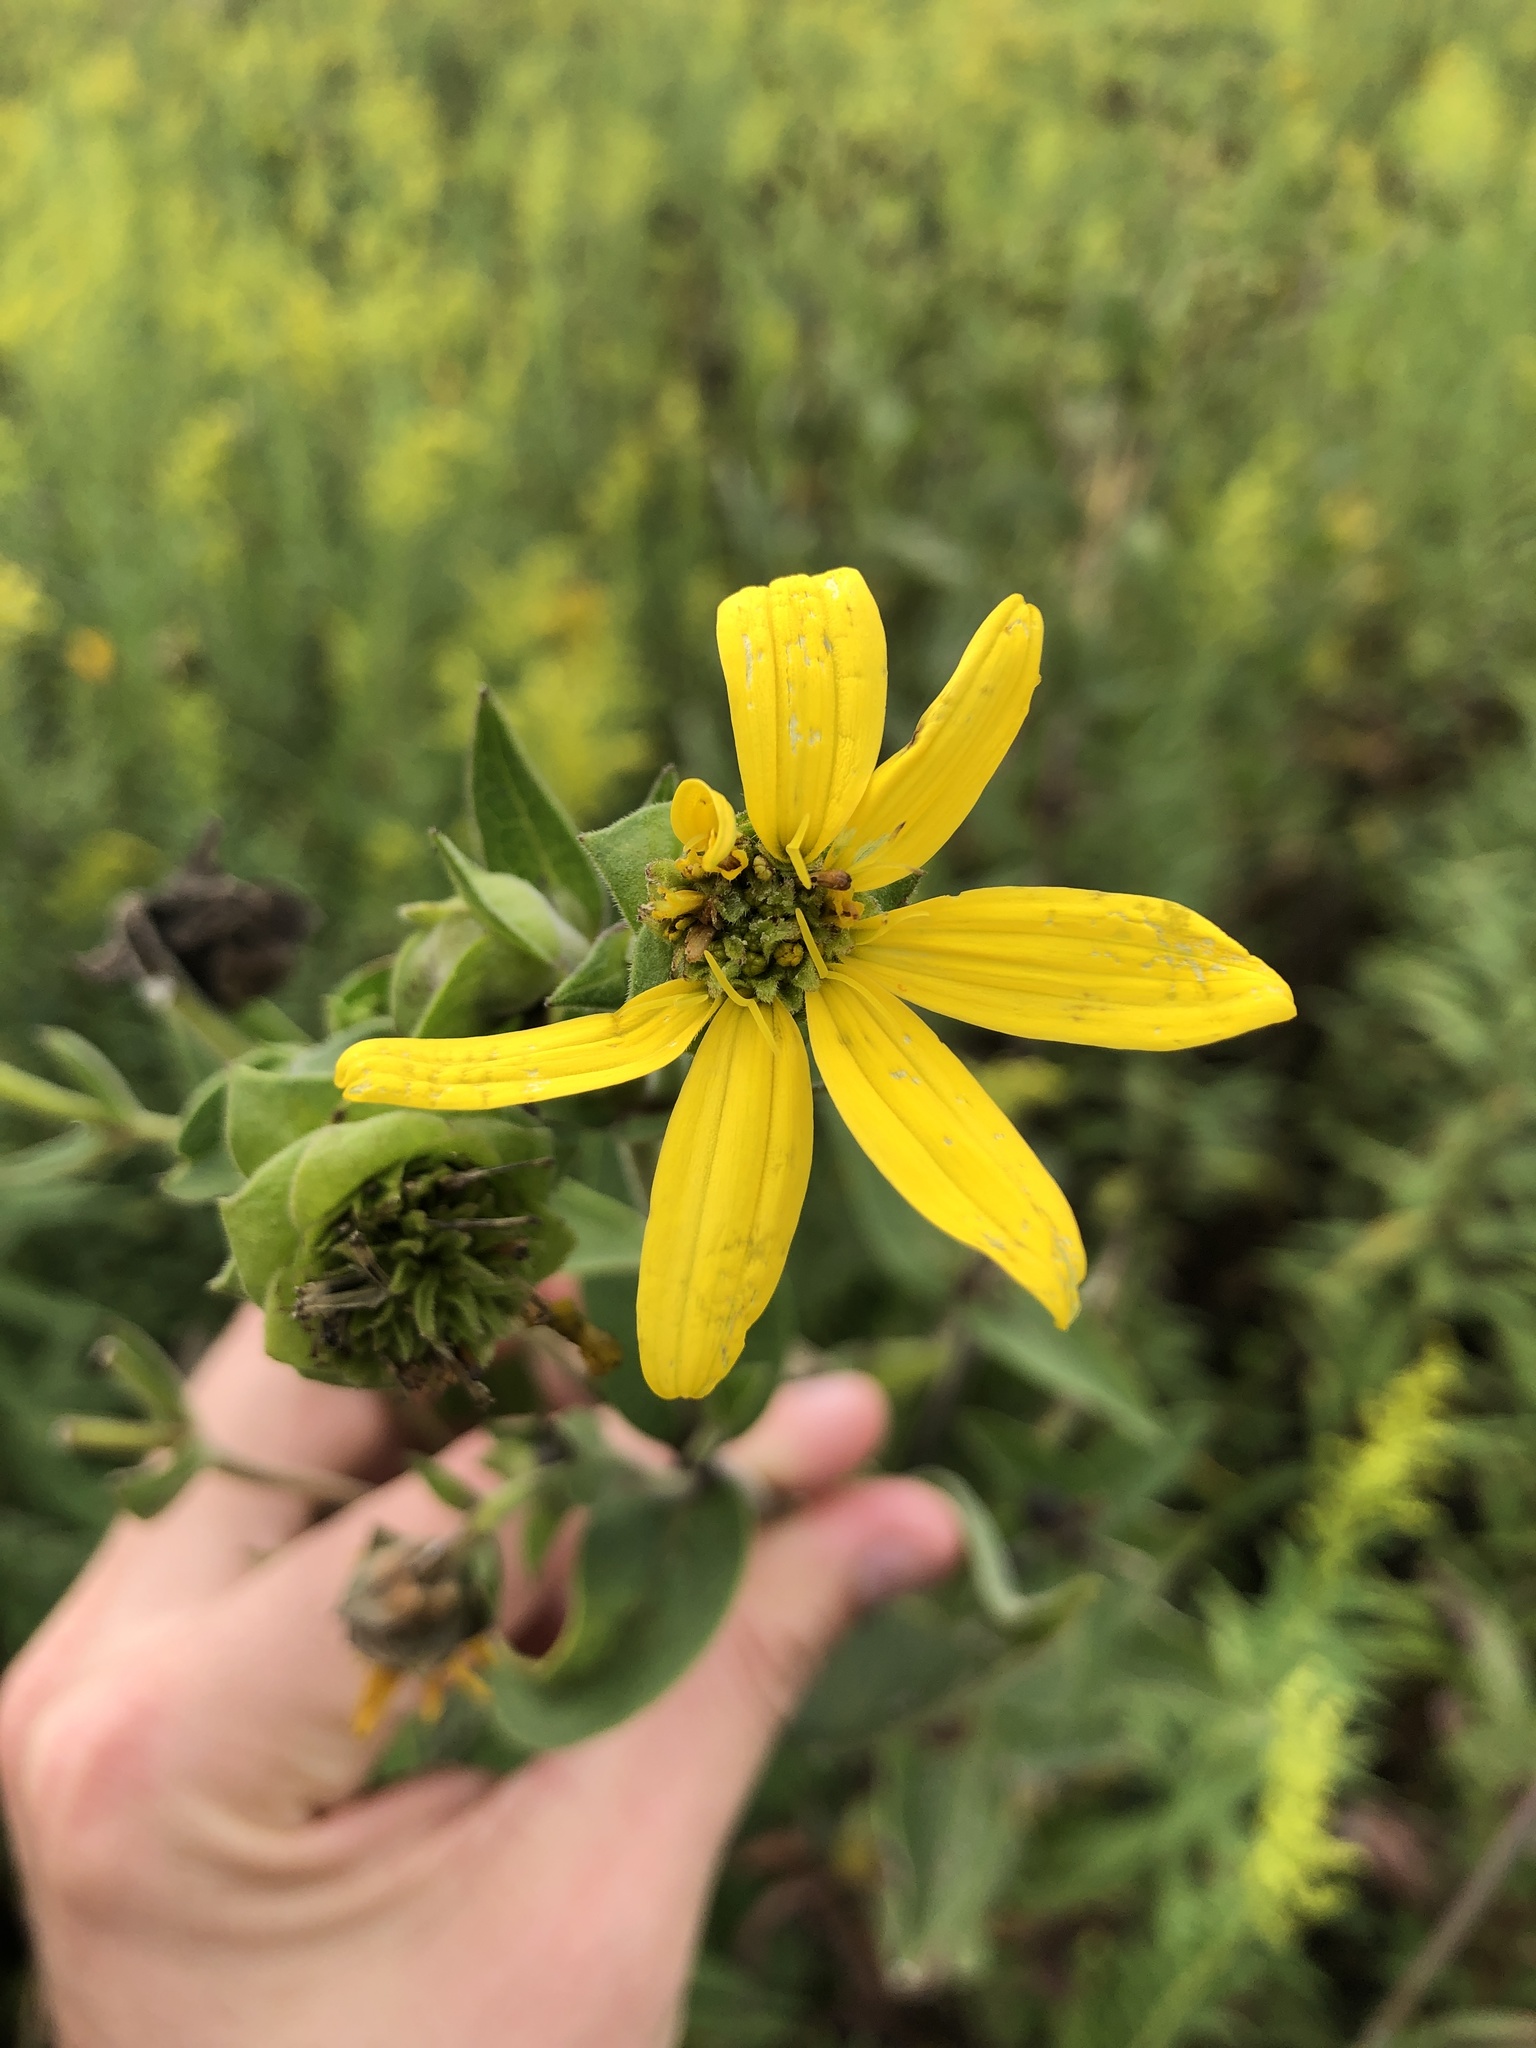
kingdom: Plantae
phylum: Tracheophyta
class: Magnoliopsida
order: Asterales
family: Asteraceae
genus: Silphium
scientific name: Silphium integrifolium
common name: Whole-leaf rosinweed
